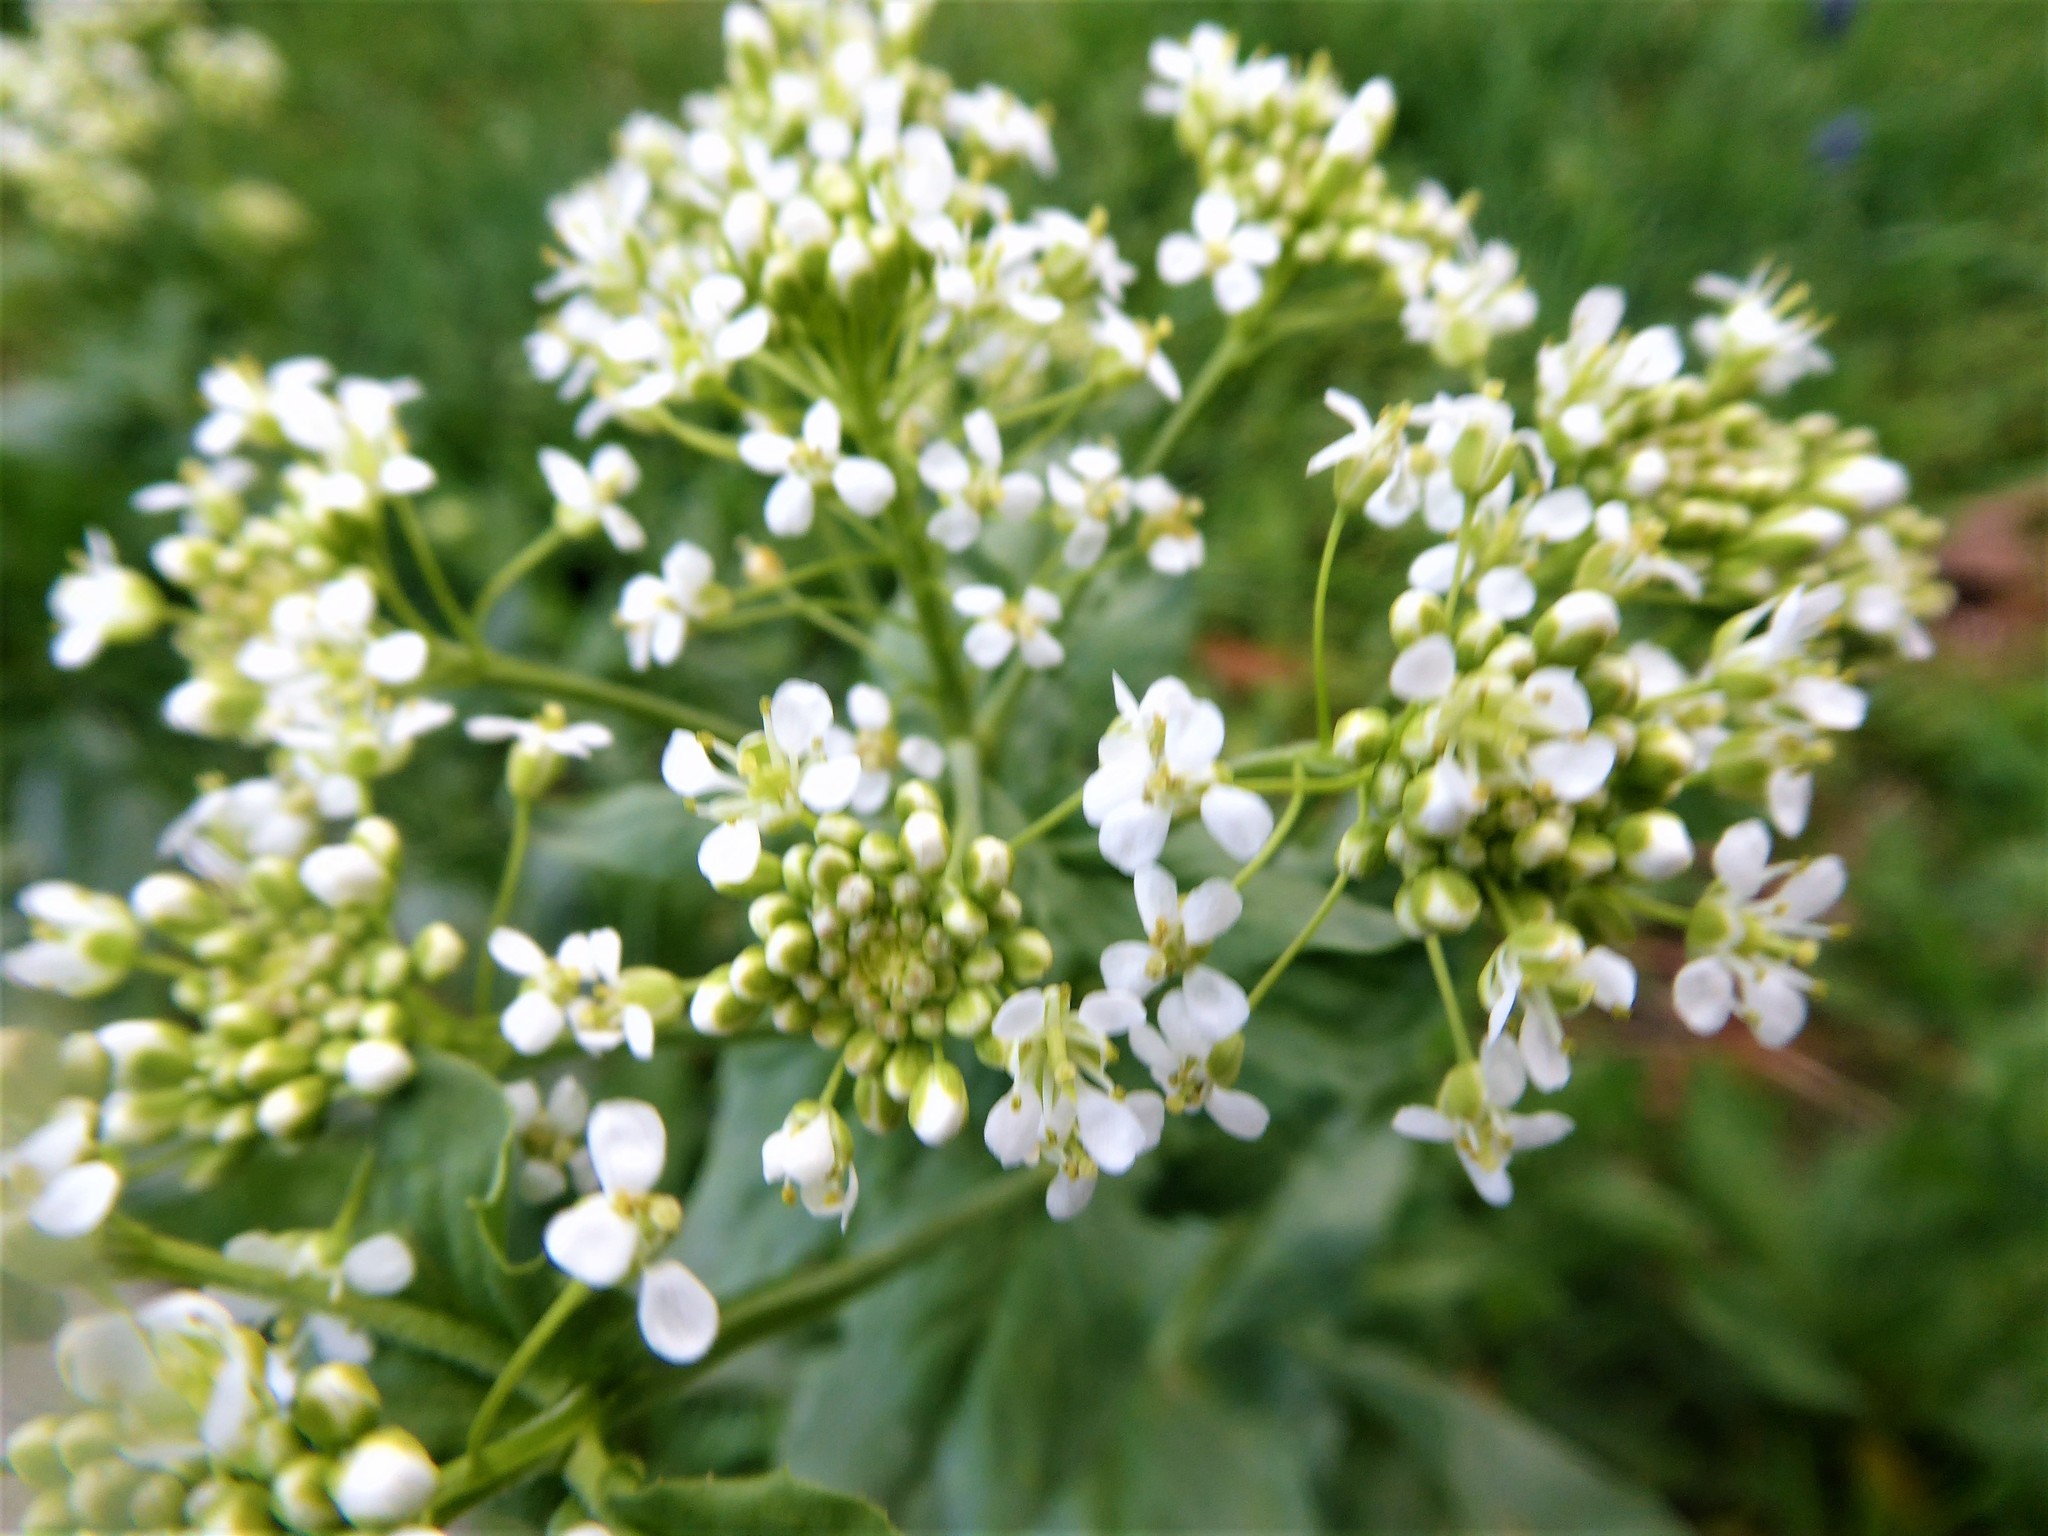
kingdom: Plantae
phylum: Tracheophyta
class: Magnoliopsida
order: Brassicales
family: Brassicaceae
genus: Lepidium
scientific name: Lepidium draba
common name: Hoary cress
